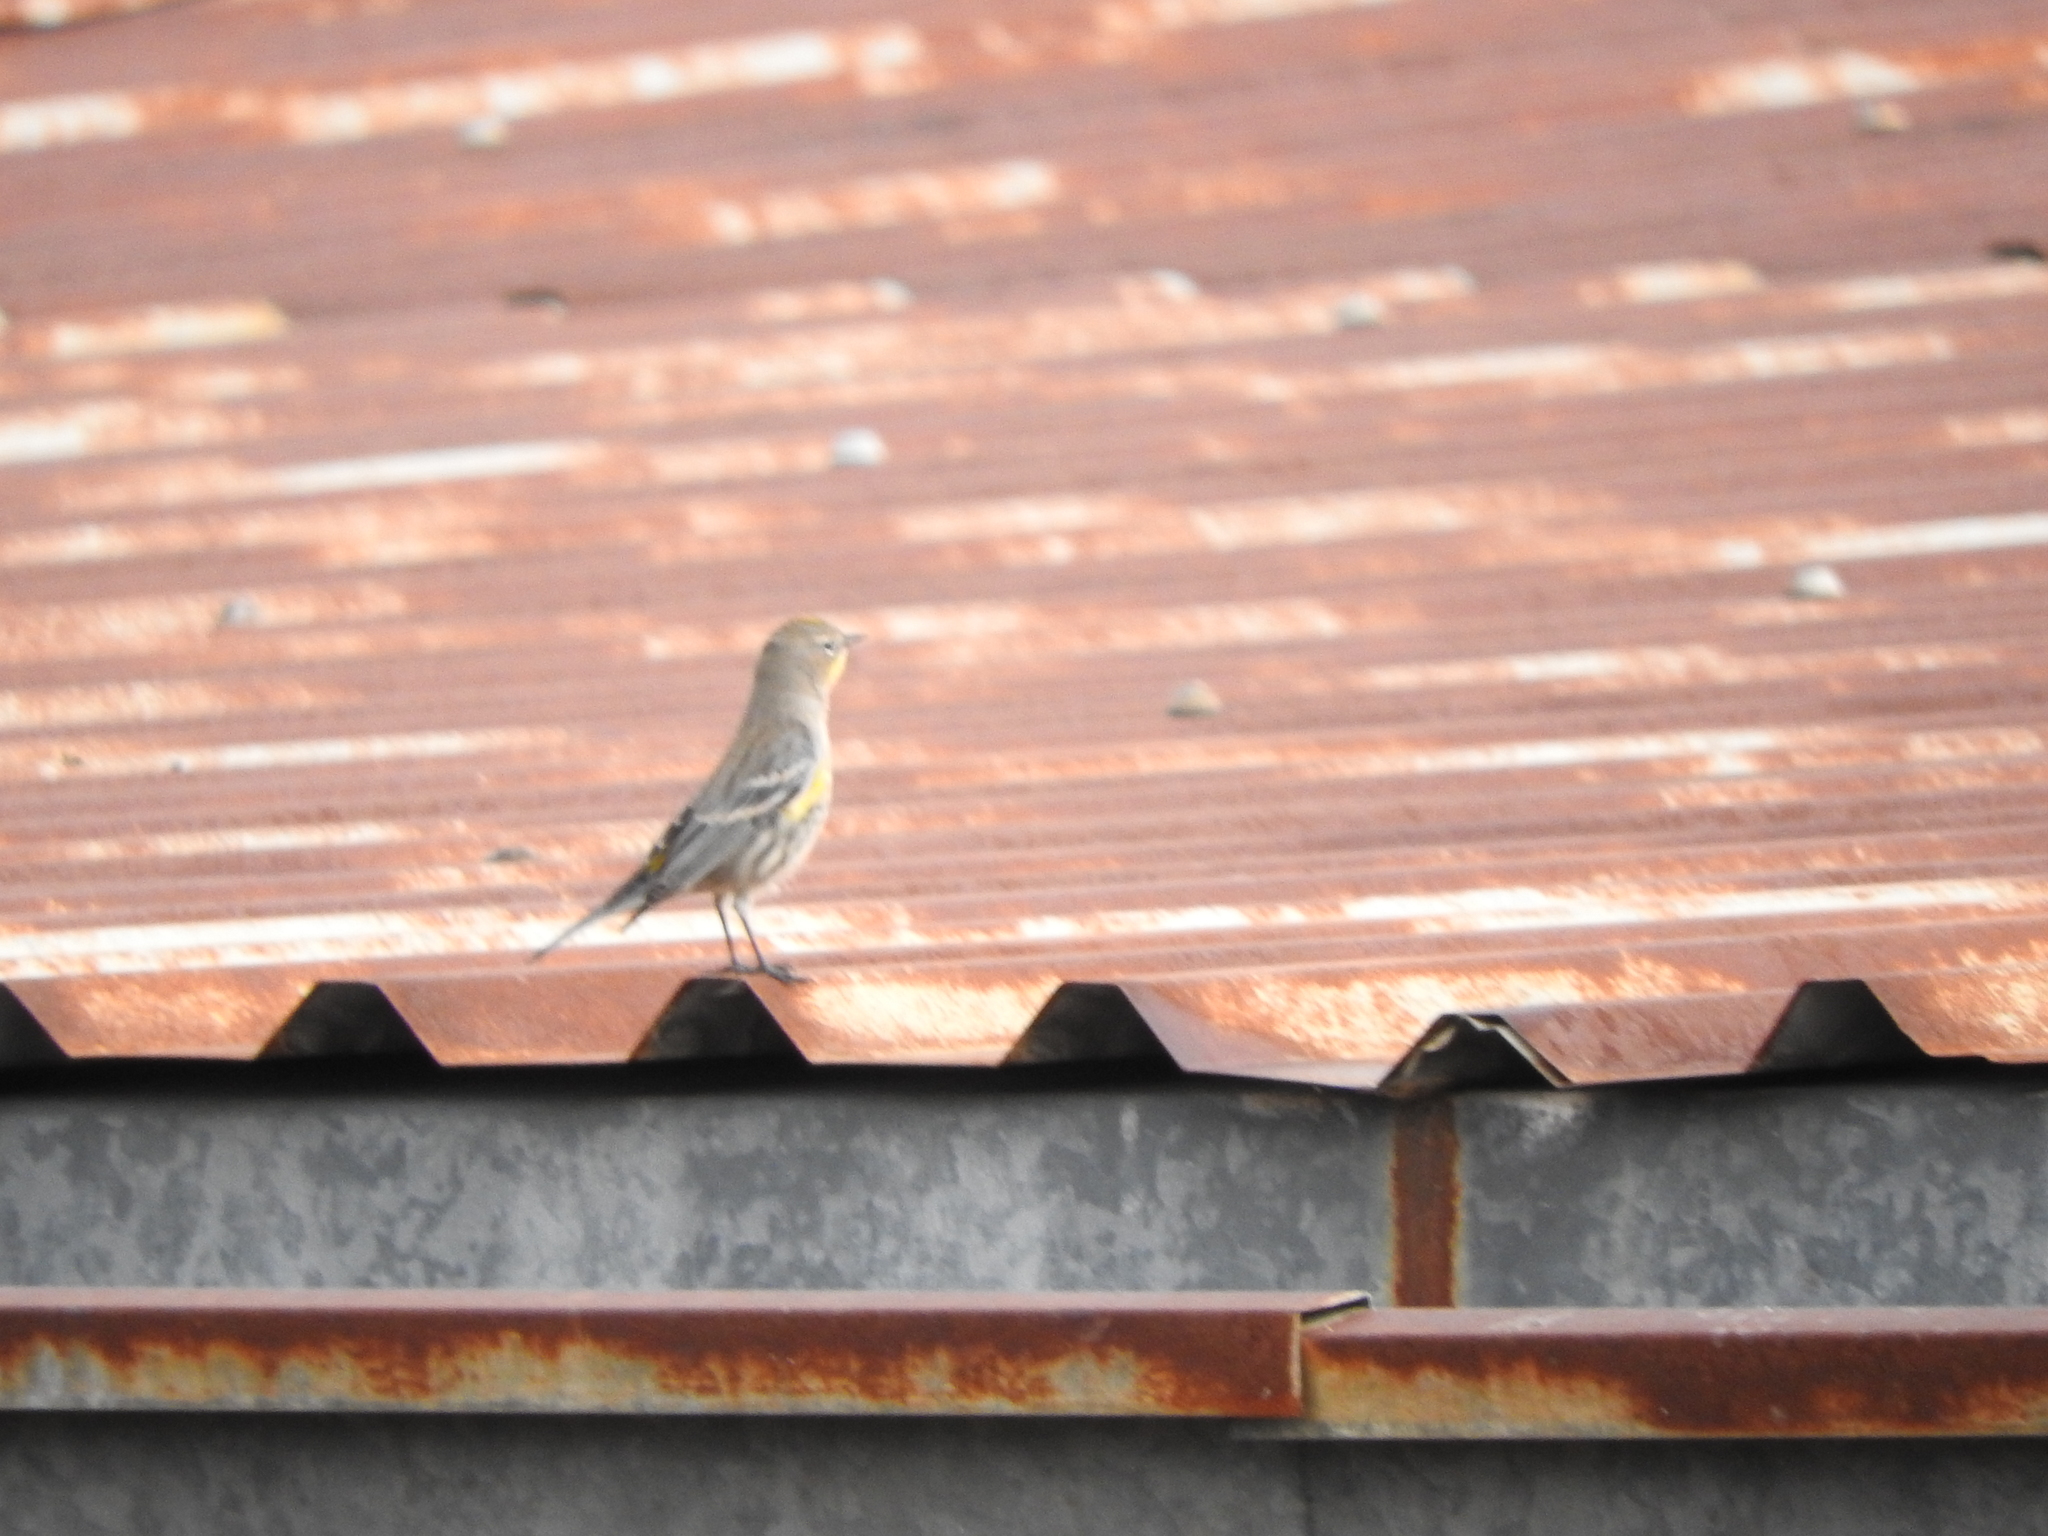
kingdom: Animalia
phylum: Chordata
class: Aves
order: Passeriformes
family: Parulidae
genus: Setophaga
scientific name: Setophaga coronata
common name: Myrtle warbler
